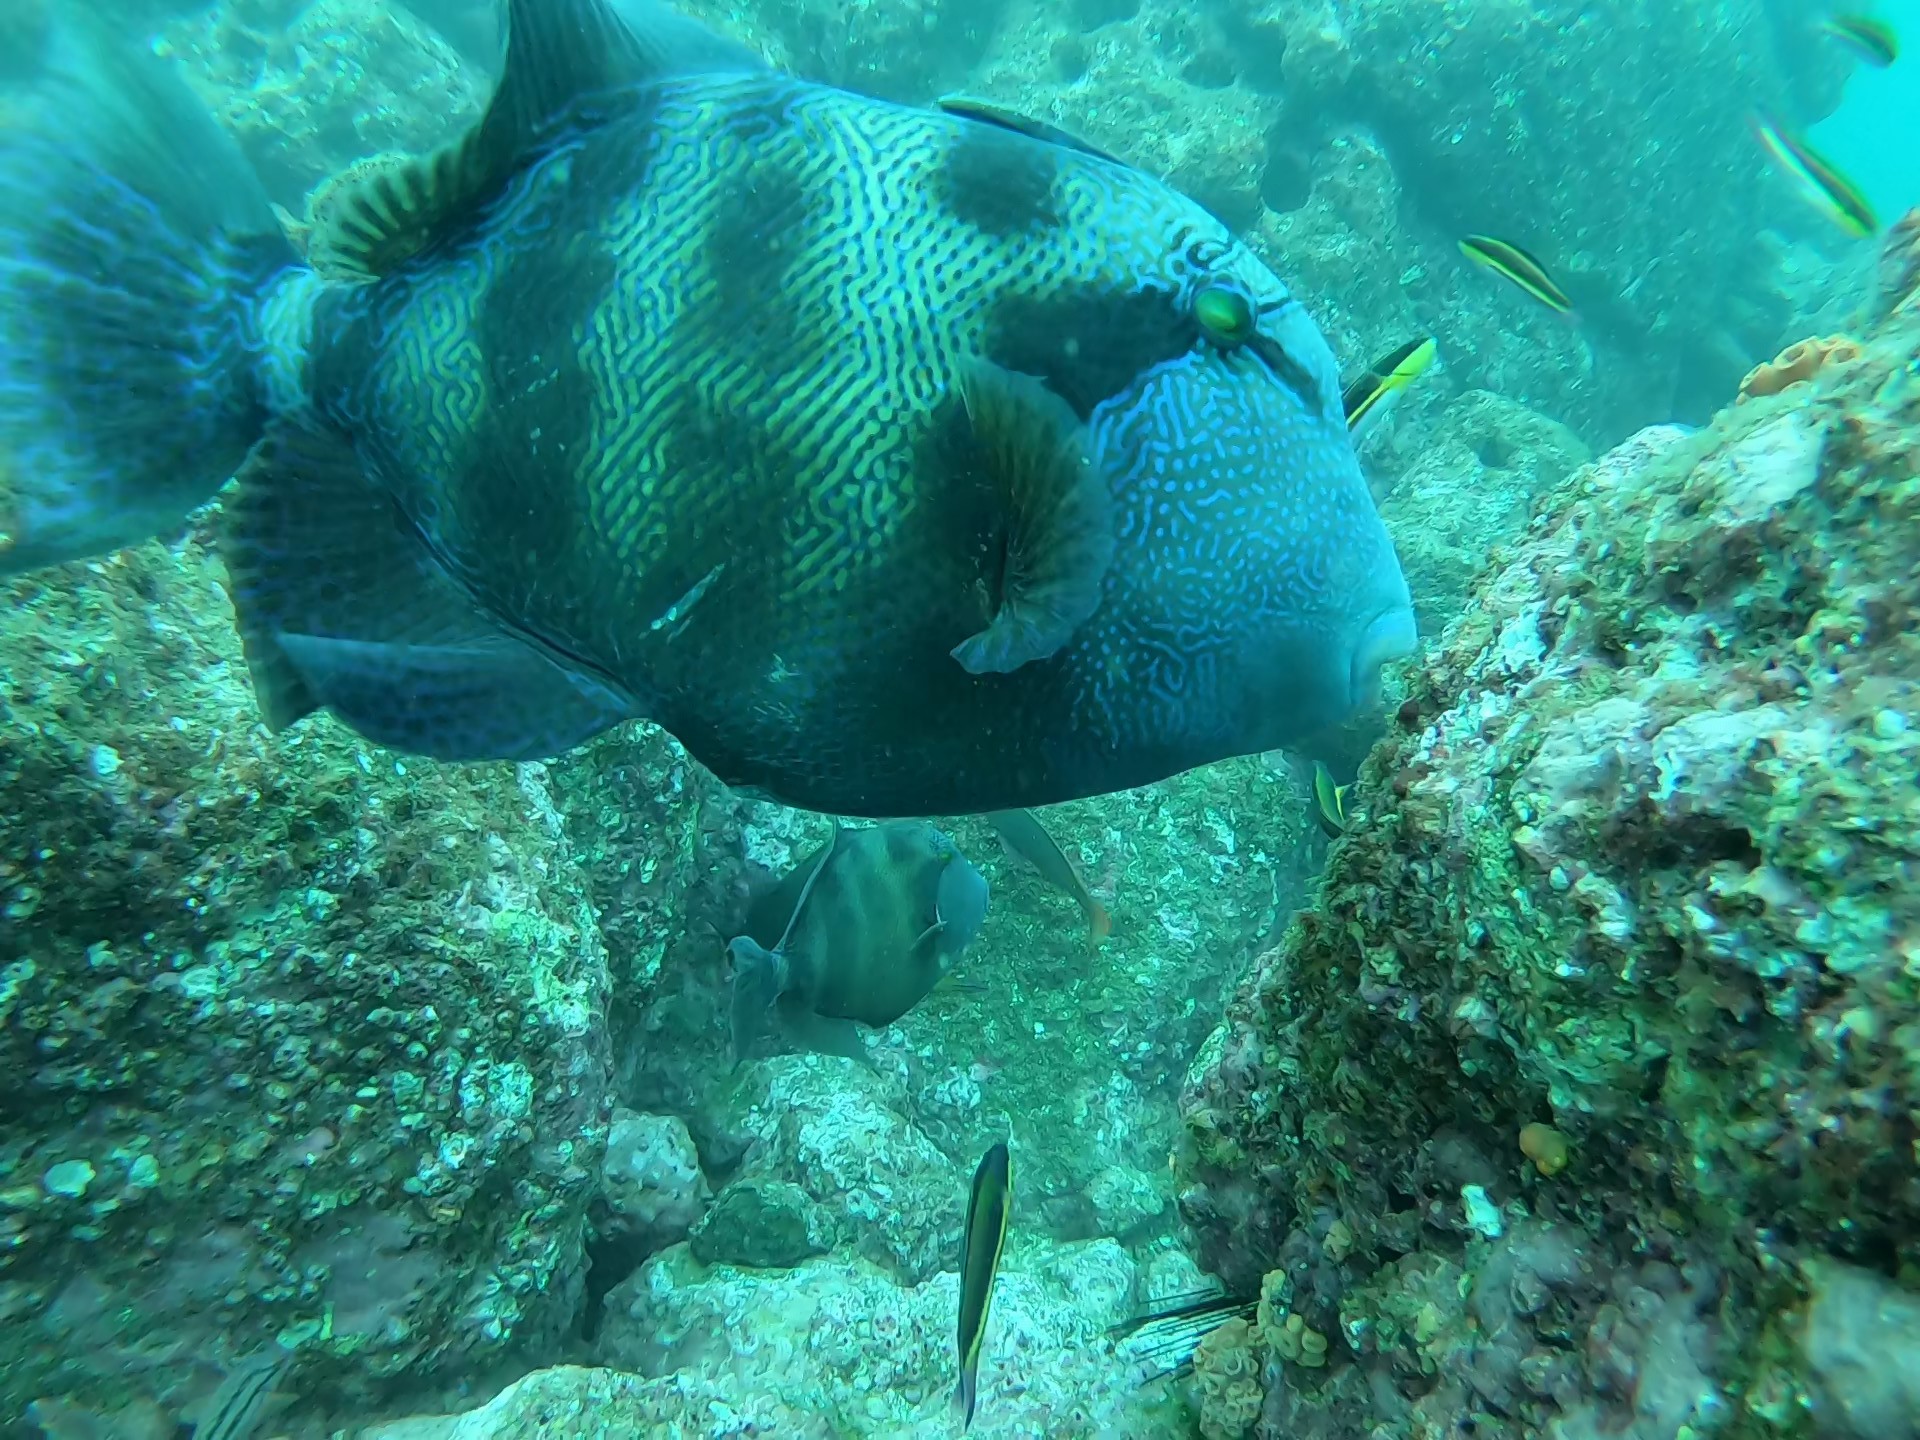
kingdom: Animalia
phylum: Chordata
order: Tetraodontiformes
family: Balistidae
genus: Pseudobalistes
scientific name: Pseudobalistes naufragium
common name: Blunthead triggerfish
